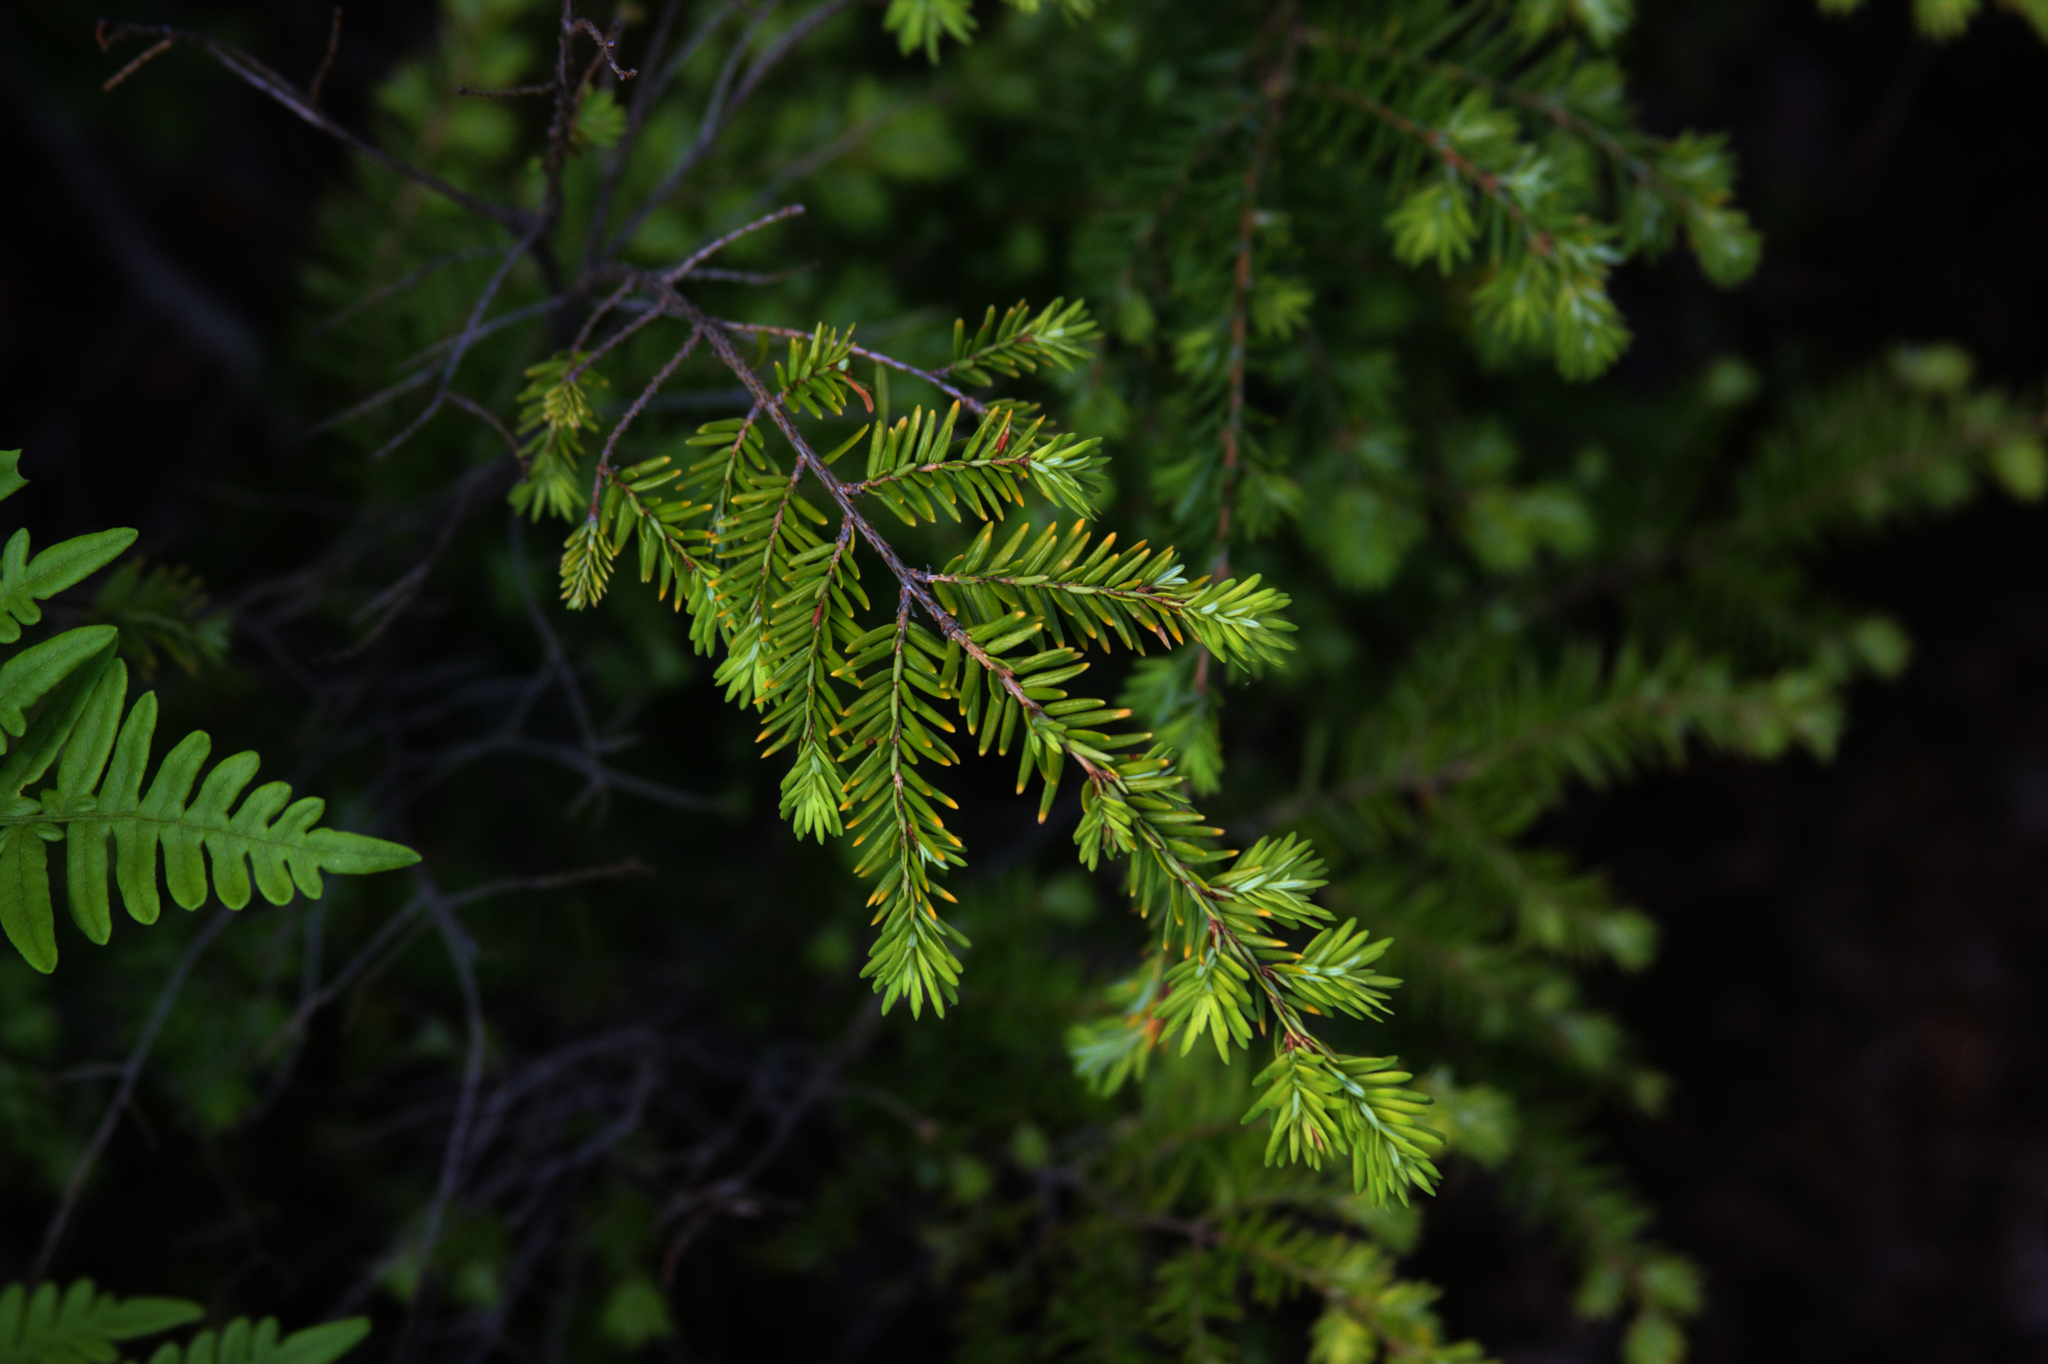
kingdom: Plantae
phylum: Tracheophyta
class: Pinopsida
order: Pinales
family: Pinaceae
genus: Tsuga
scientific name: Tsuga canadensis
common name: Eastern hemlock
